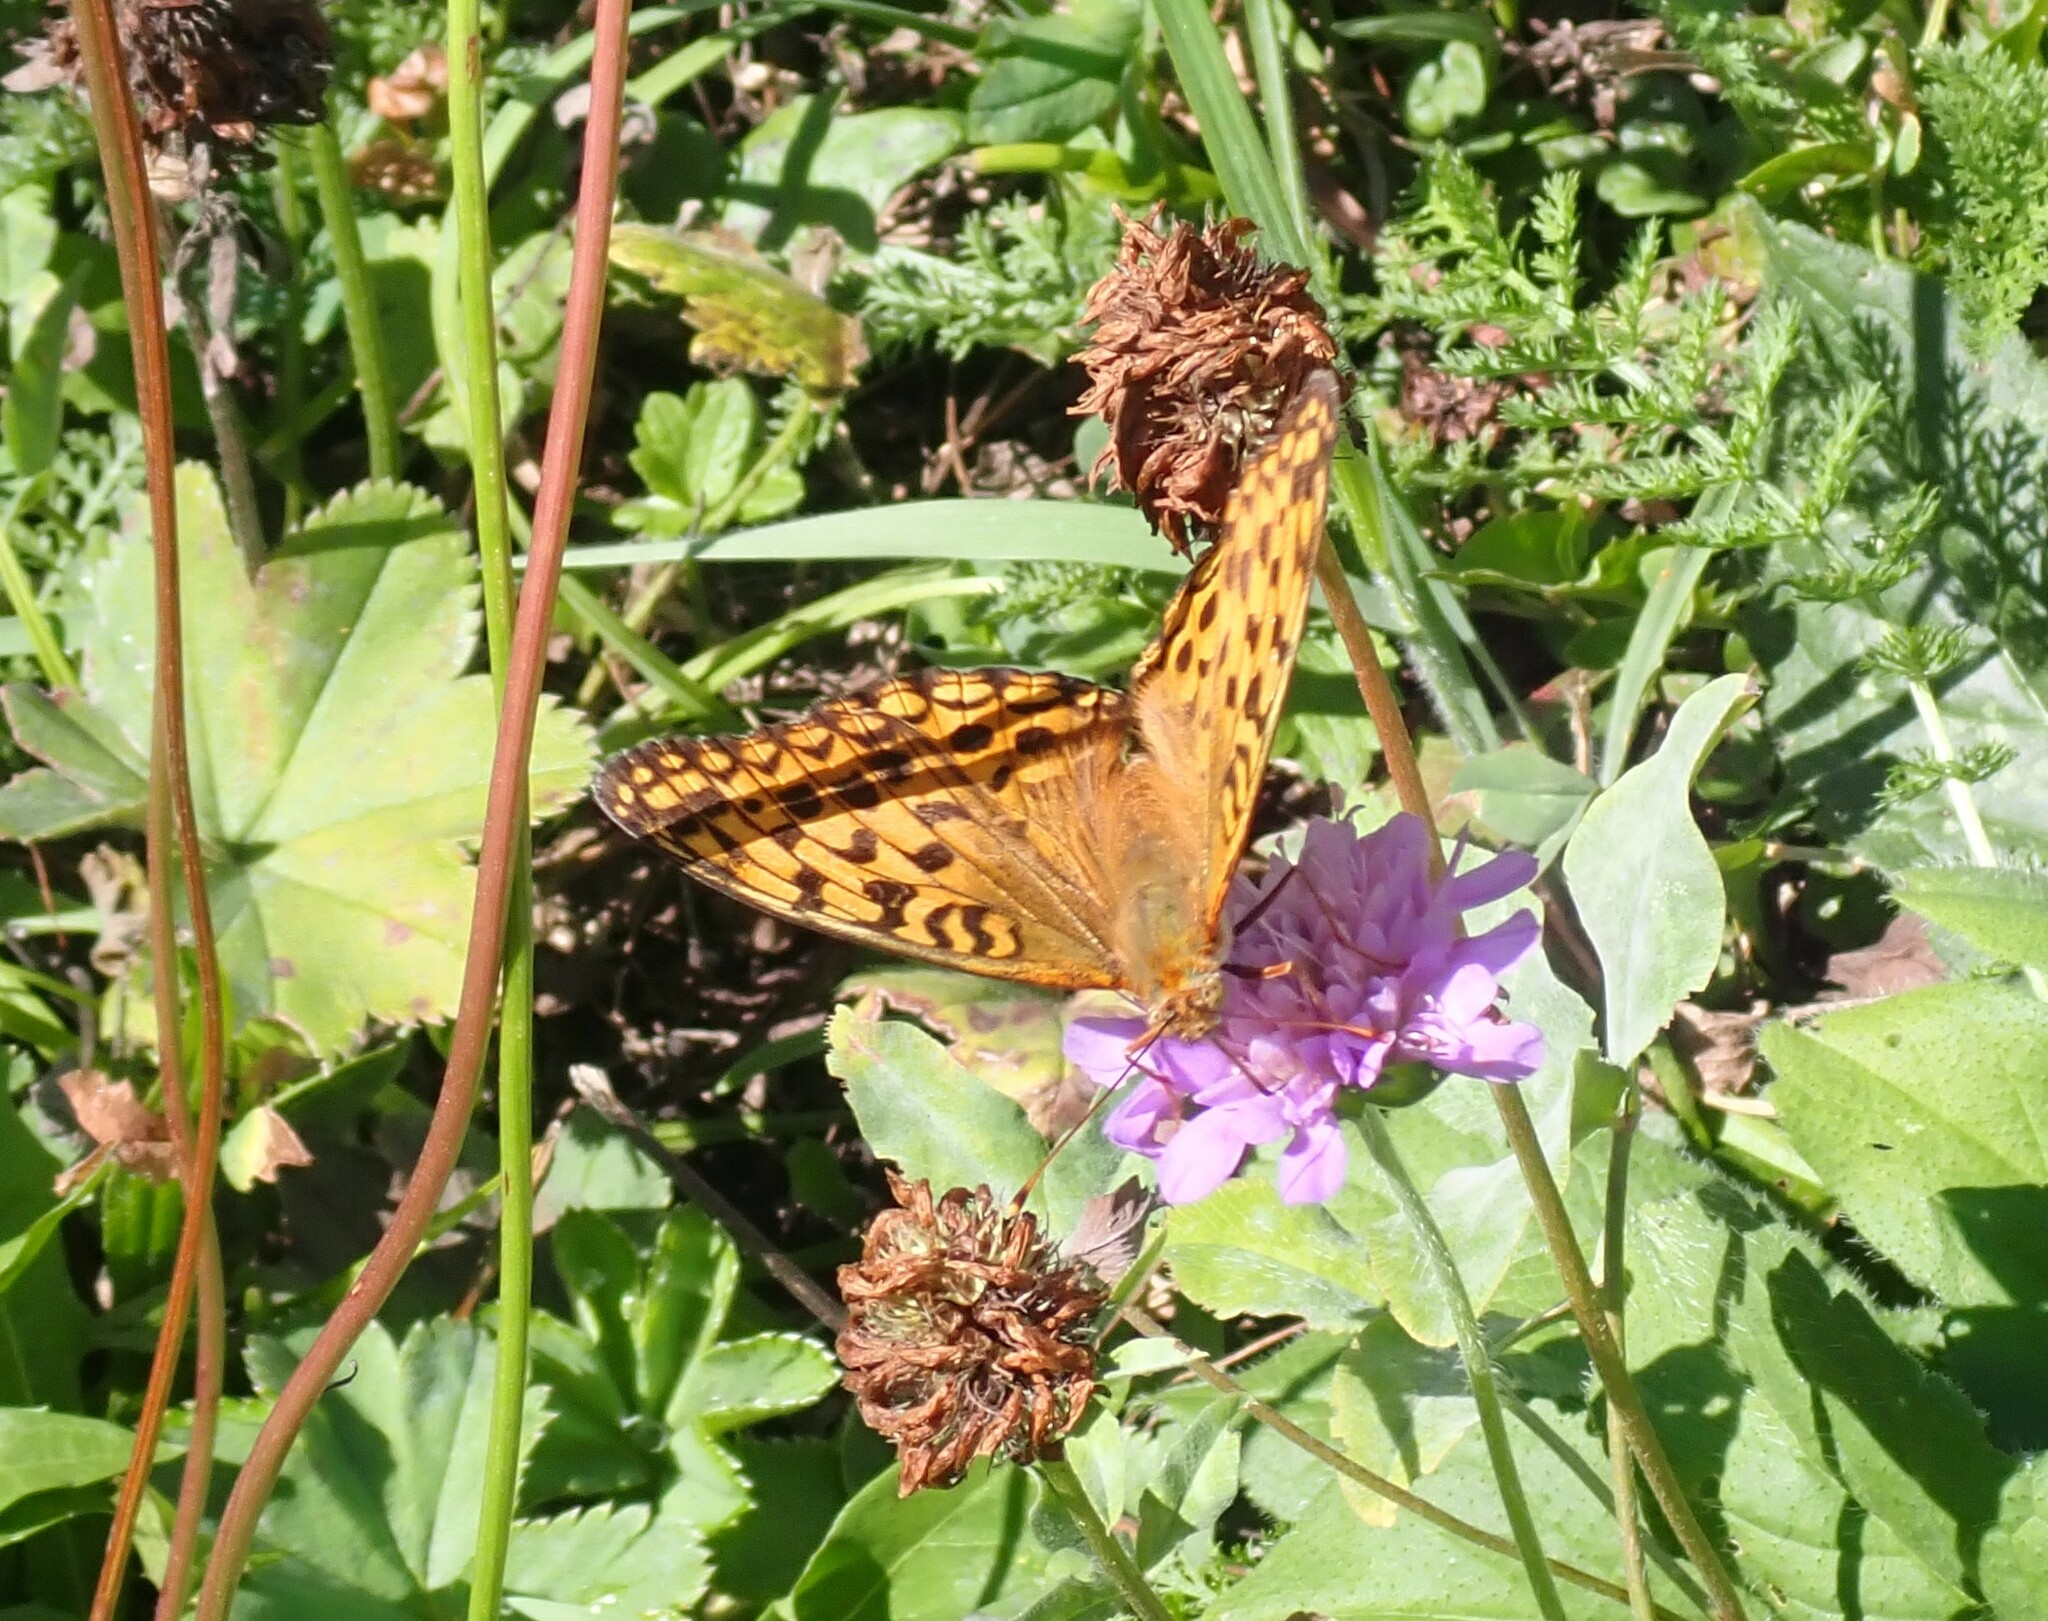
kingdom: Animalia
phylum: Arthropoda
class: Insecta
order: Lepidoptera
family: Nymphalidae
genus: Fabriciana
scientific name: Fabriciana adippe
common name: High brown fritillary
